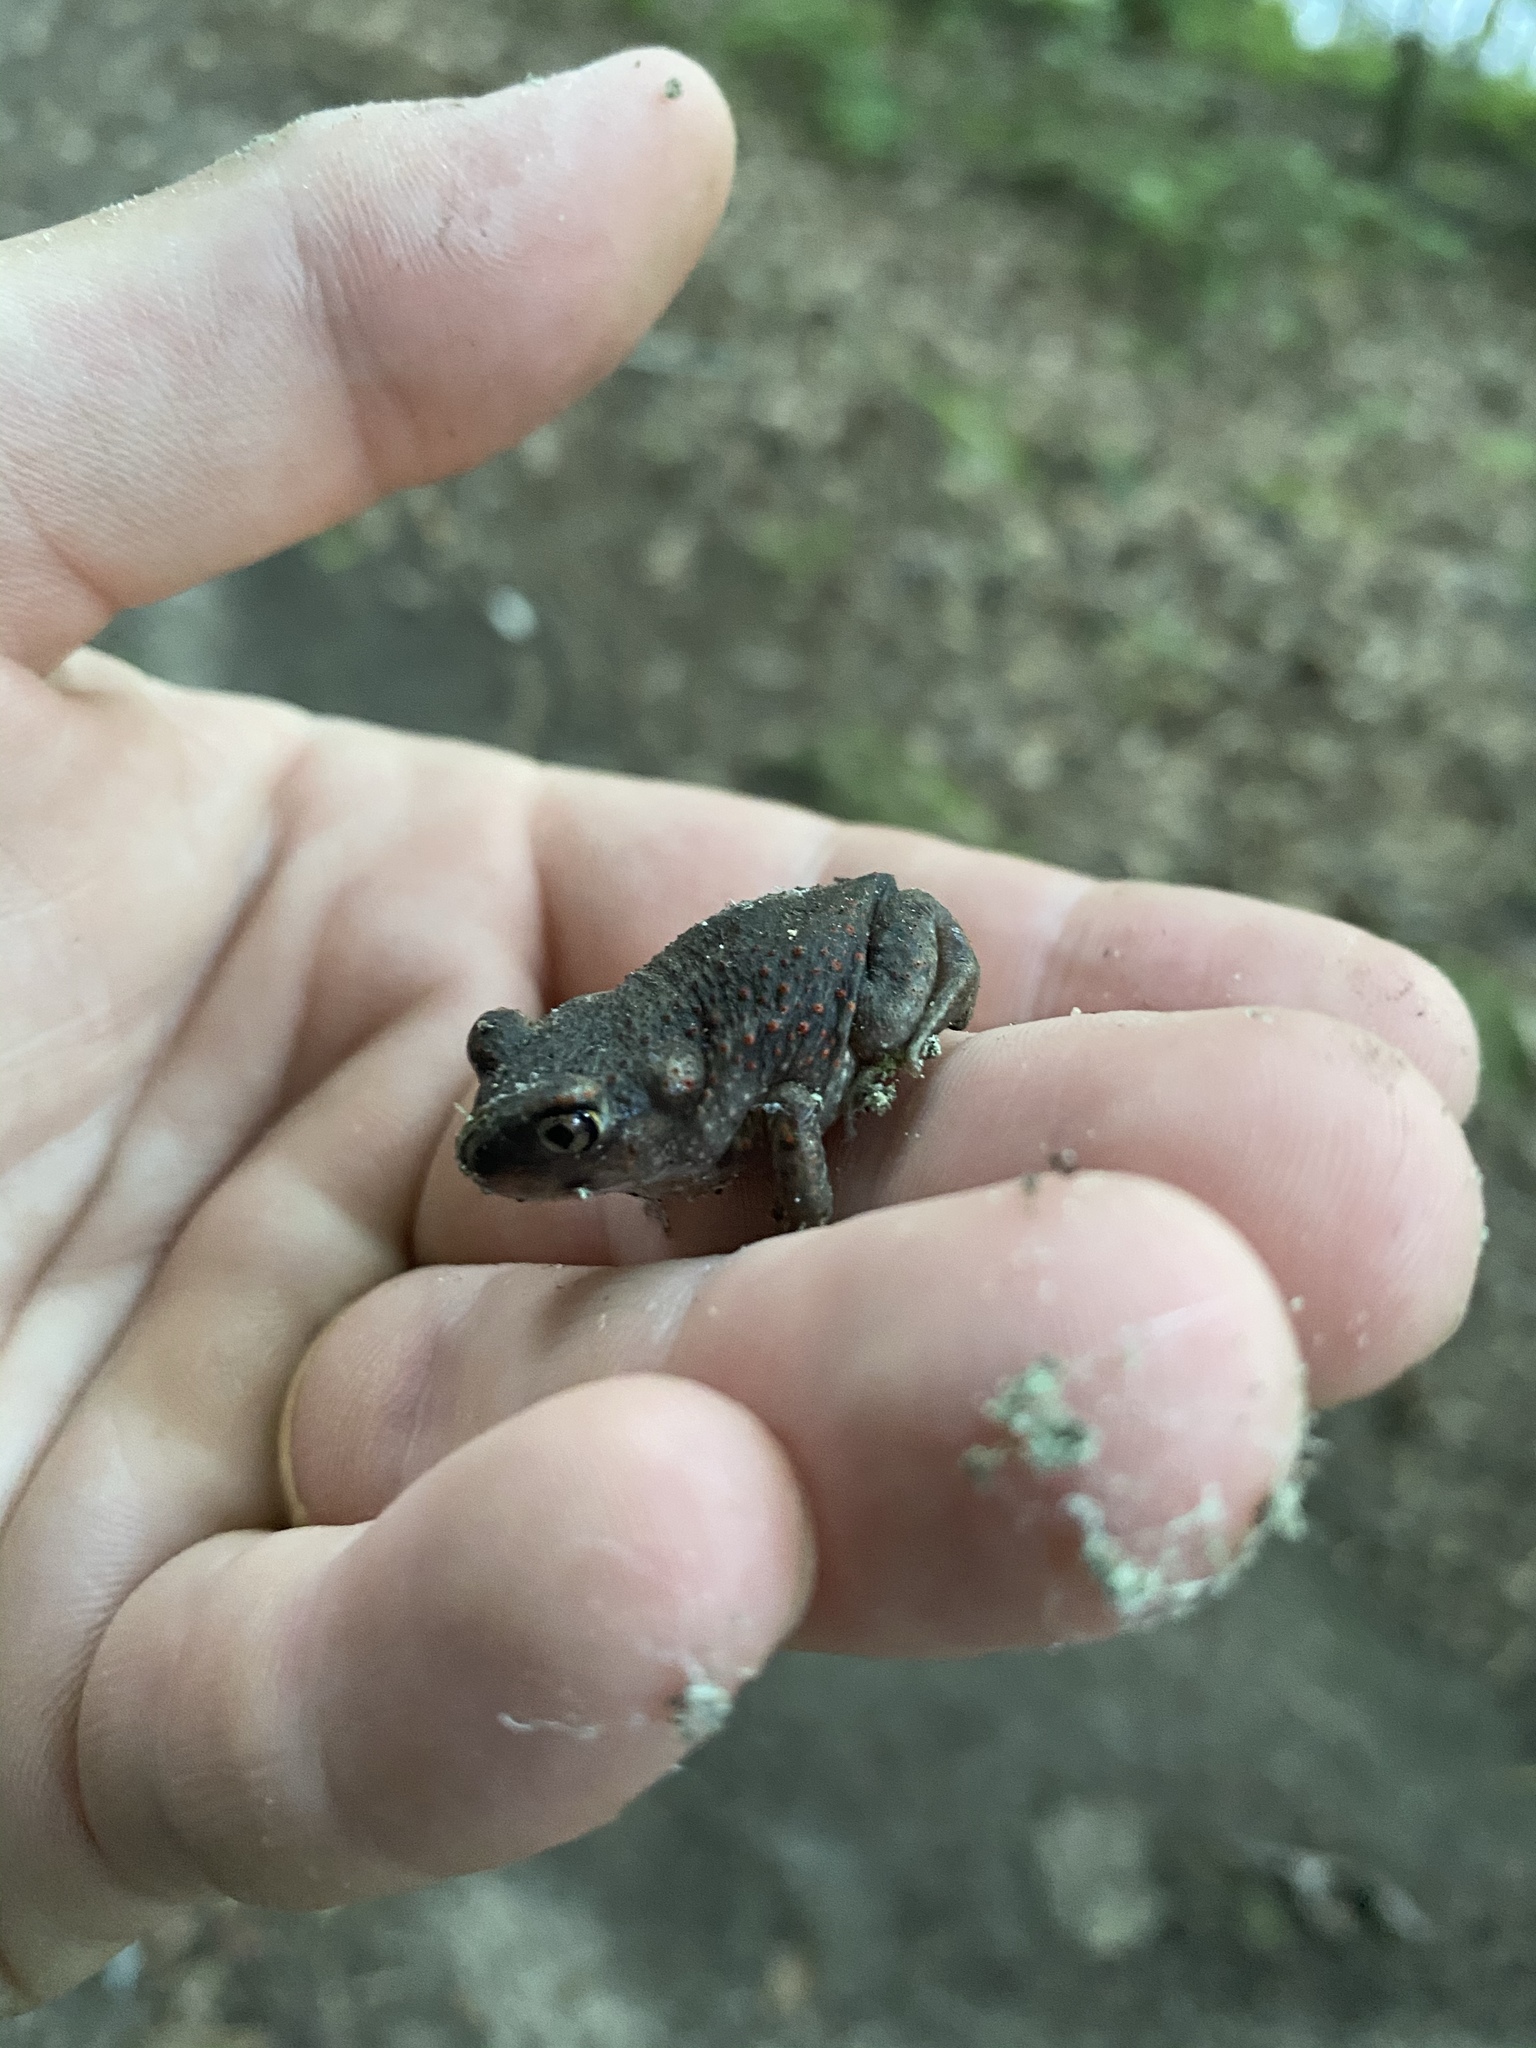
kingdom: Animalia
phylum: Chordata
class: Amphibia
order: Anura
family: Scaphiopodidae
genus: Scaphiopus
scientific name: Scaphiopus holbrookii
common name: Eastern spadefoot toad
